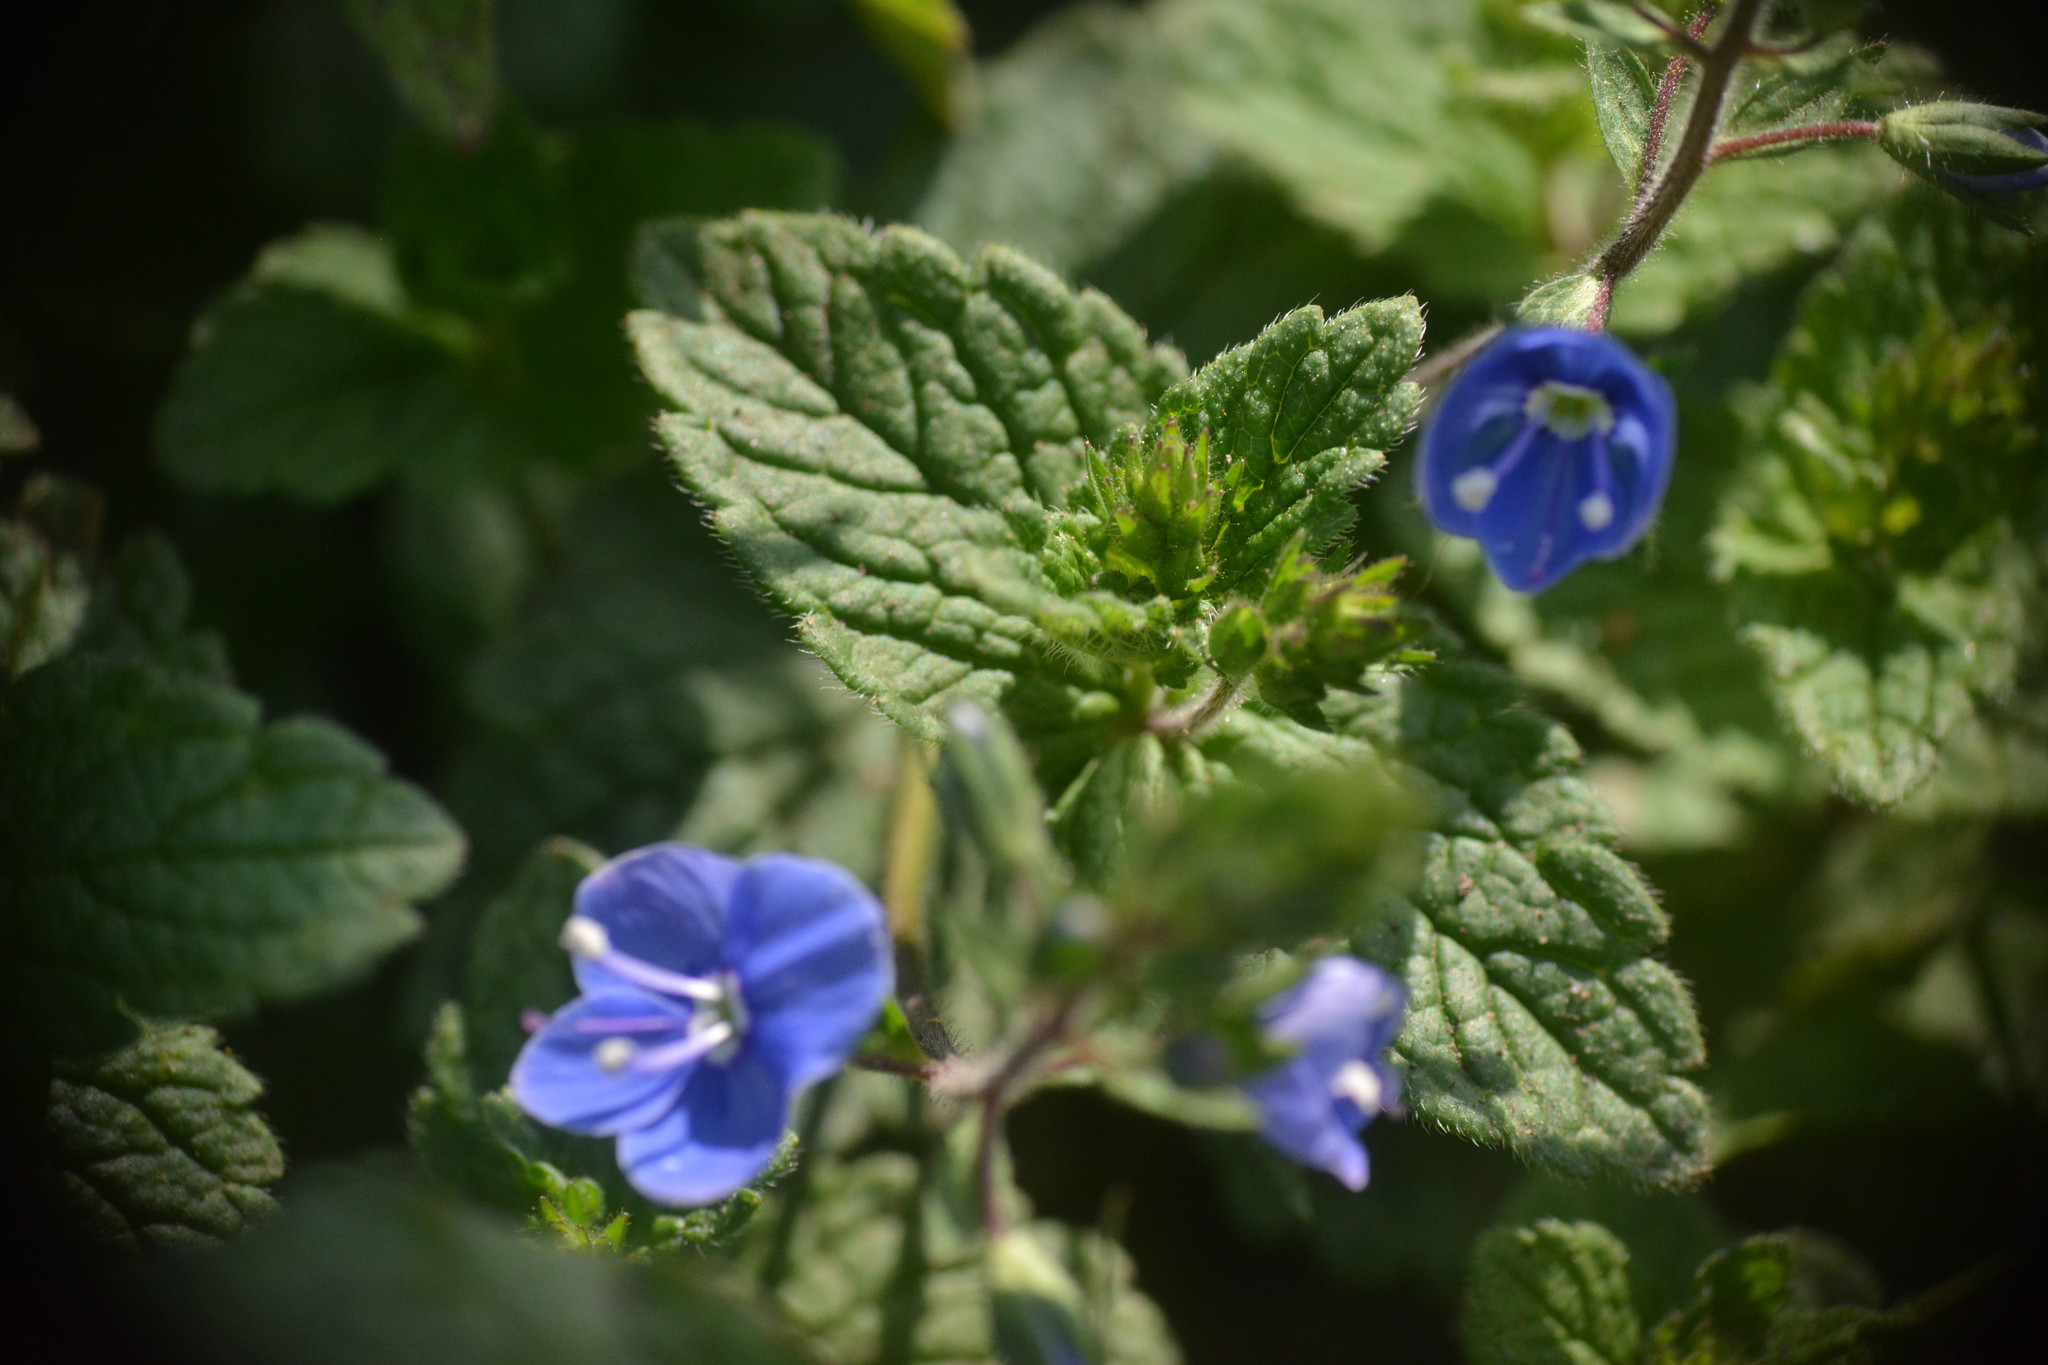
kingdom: Plantae
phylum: Tracheophyta
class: Magnoliopsida
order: Lamiales
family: Plantaginaceae
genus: Veronica
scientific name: Veronica chamaedrys
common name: Germander speedwell
